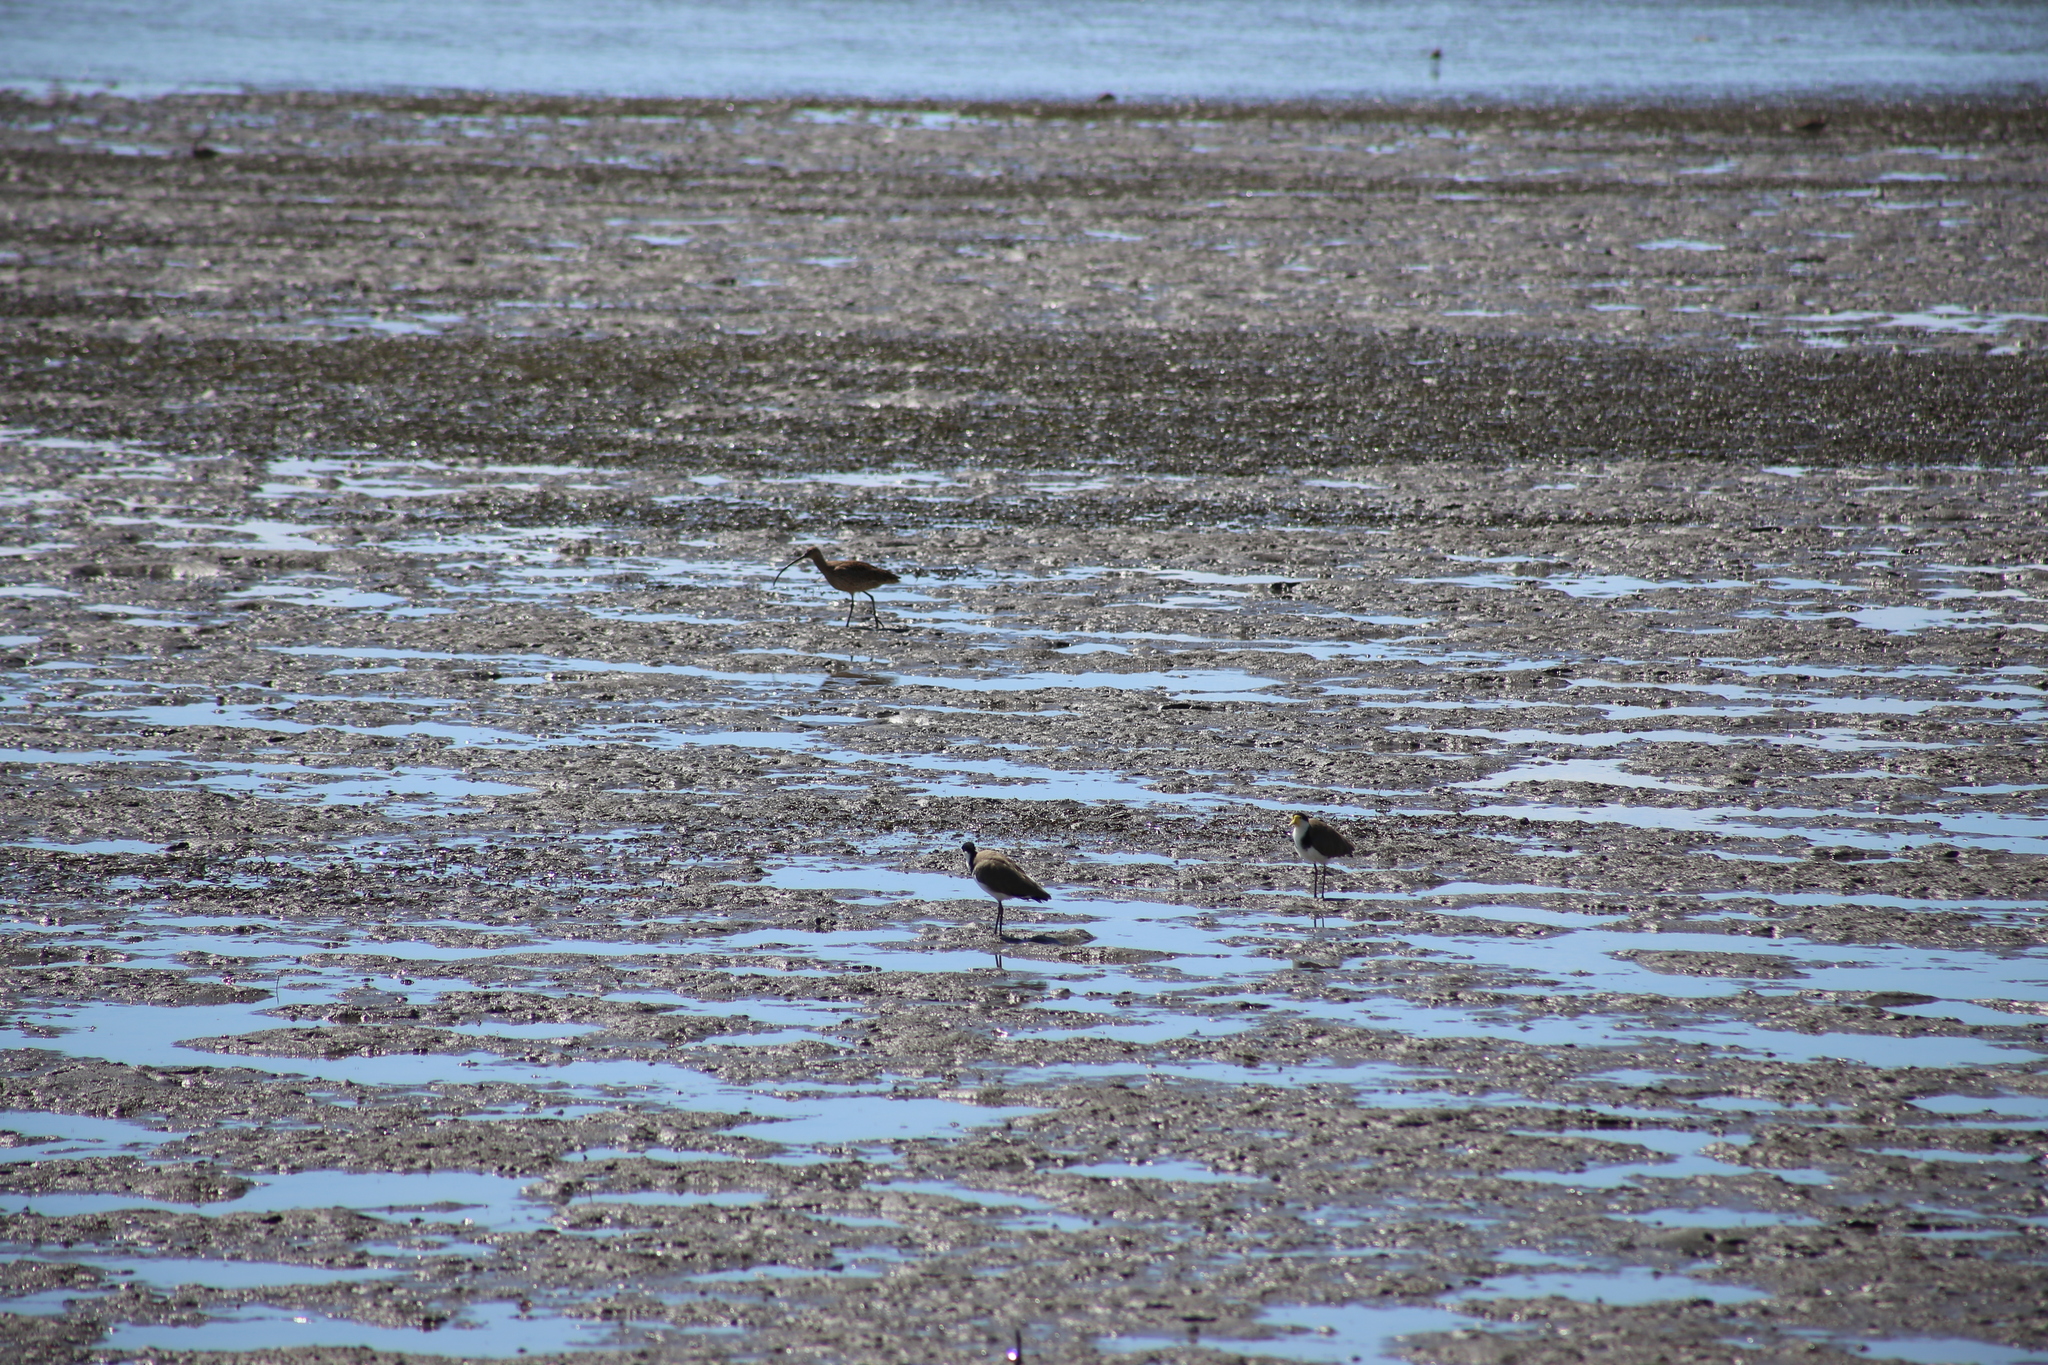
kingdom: Animalia
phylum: Chordata
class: Aves
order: Charadriiformes
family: Scolopacidae
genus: Numenius
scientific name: Numenius madagascariensis
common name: Far eastern curlew
